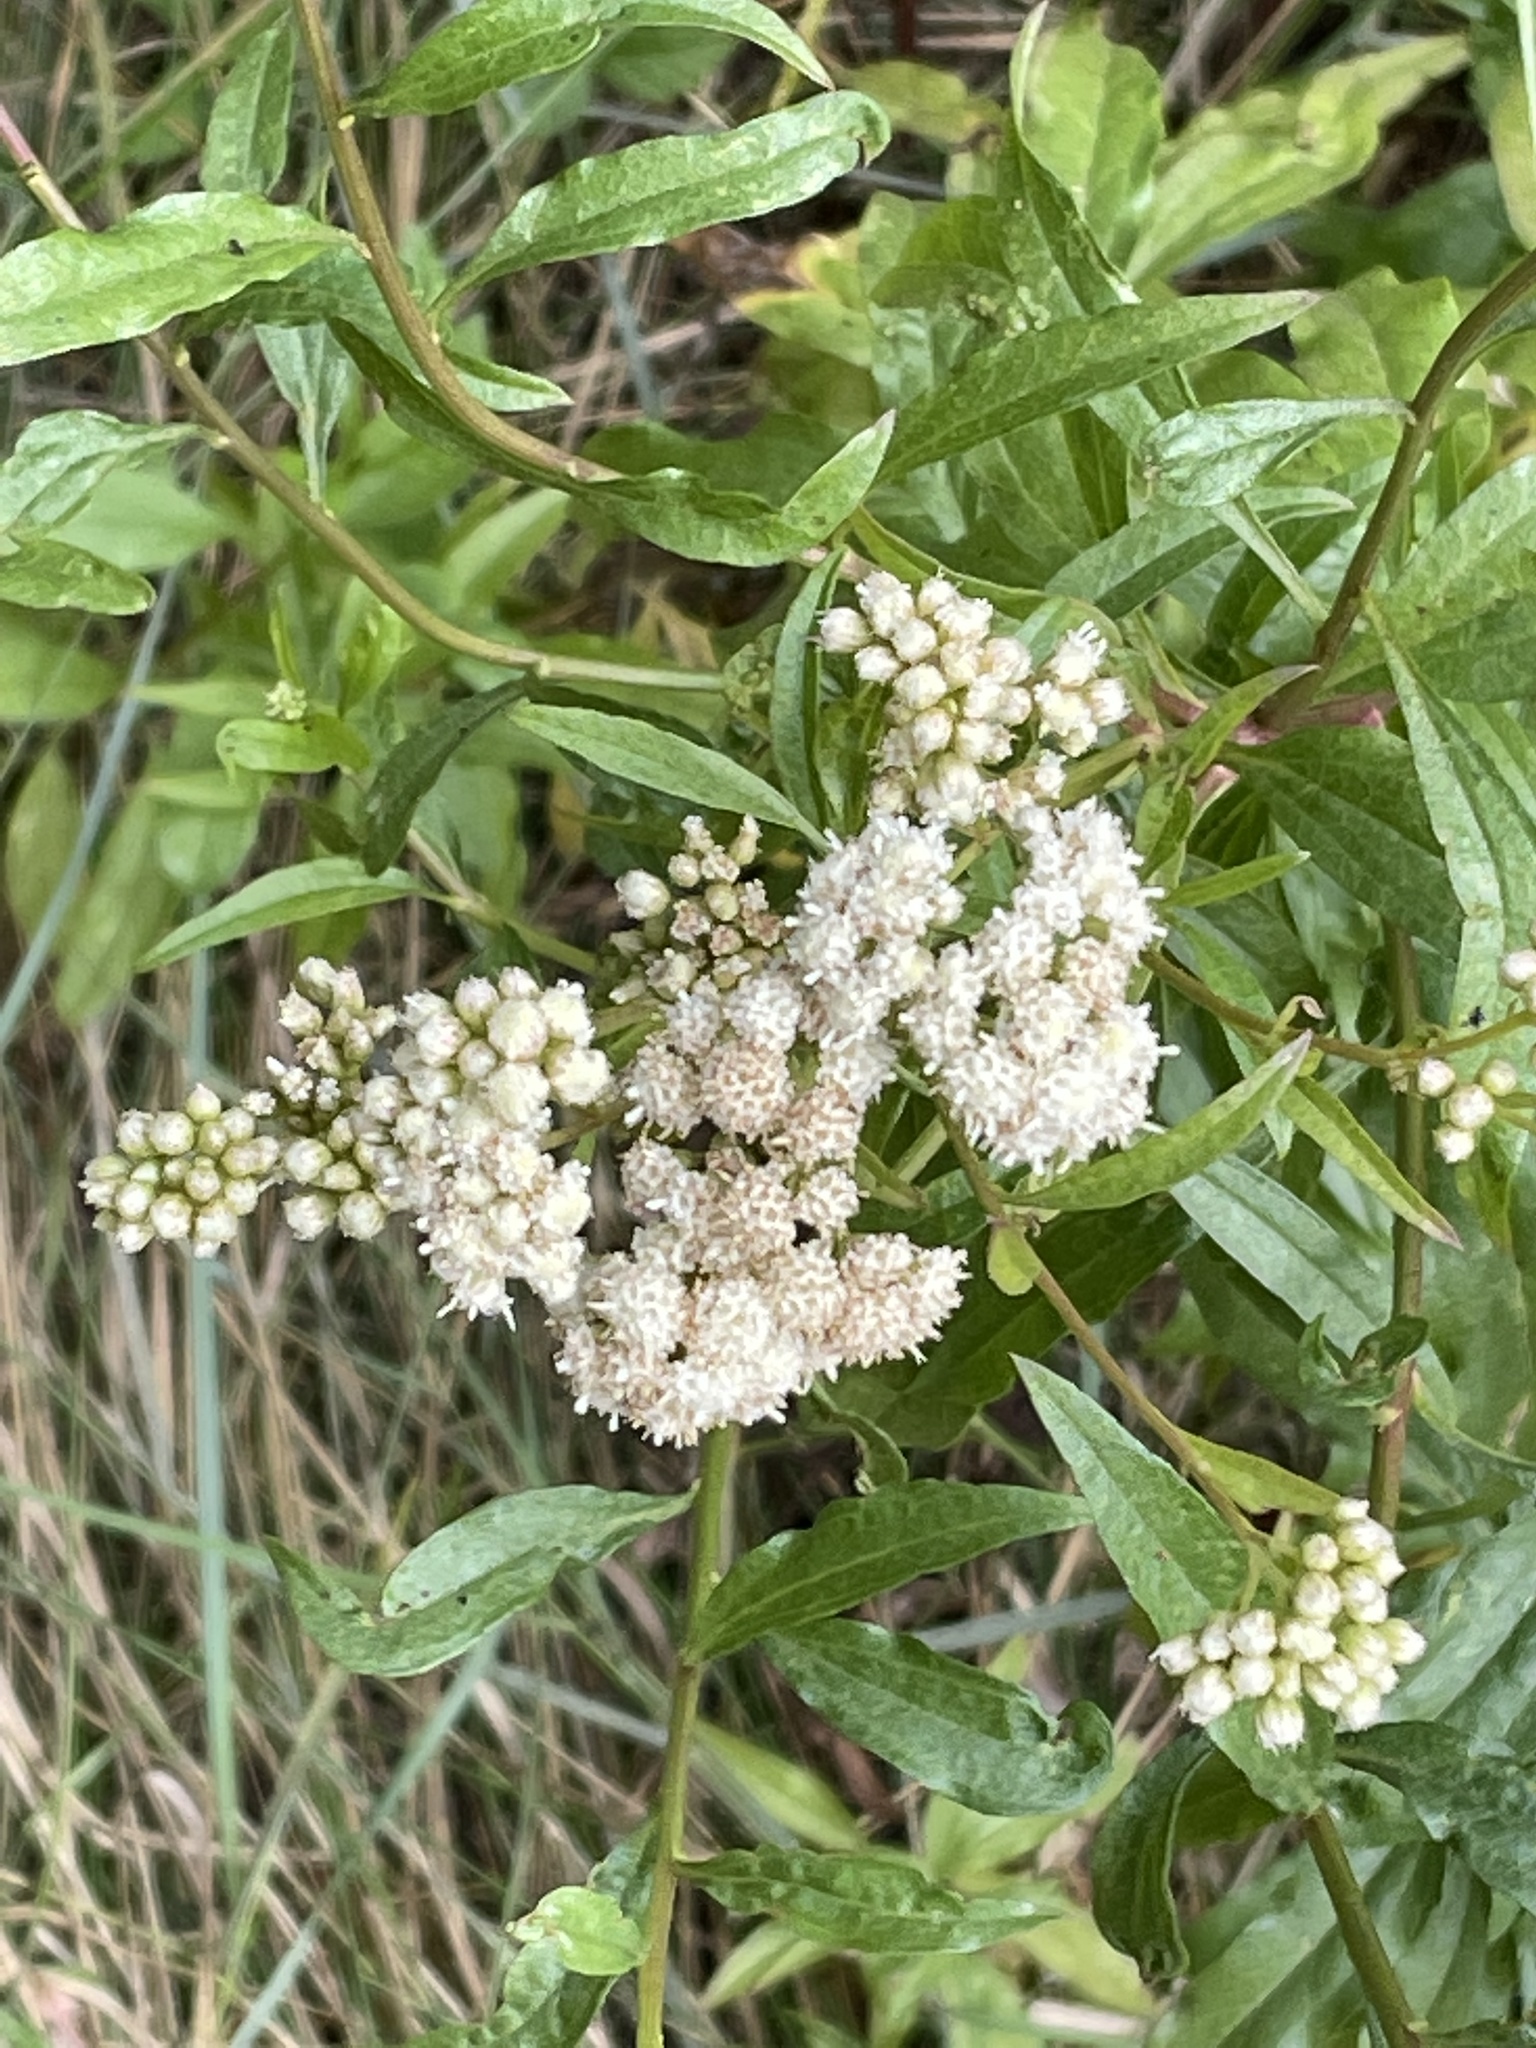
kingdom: Plantae
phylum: Tracheophyta
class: Magnoliopsida
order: Asterales
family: Asteraceae
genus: Baccharis
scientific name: Baccharis glutinosa
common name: Saltmarsh baccharis
